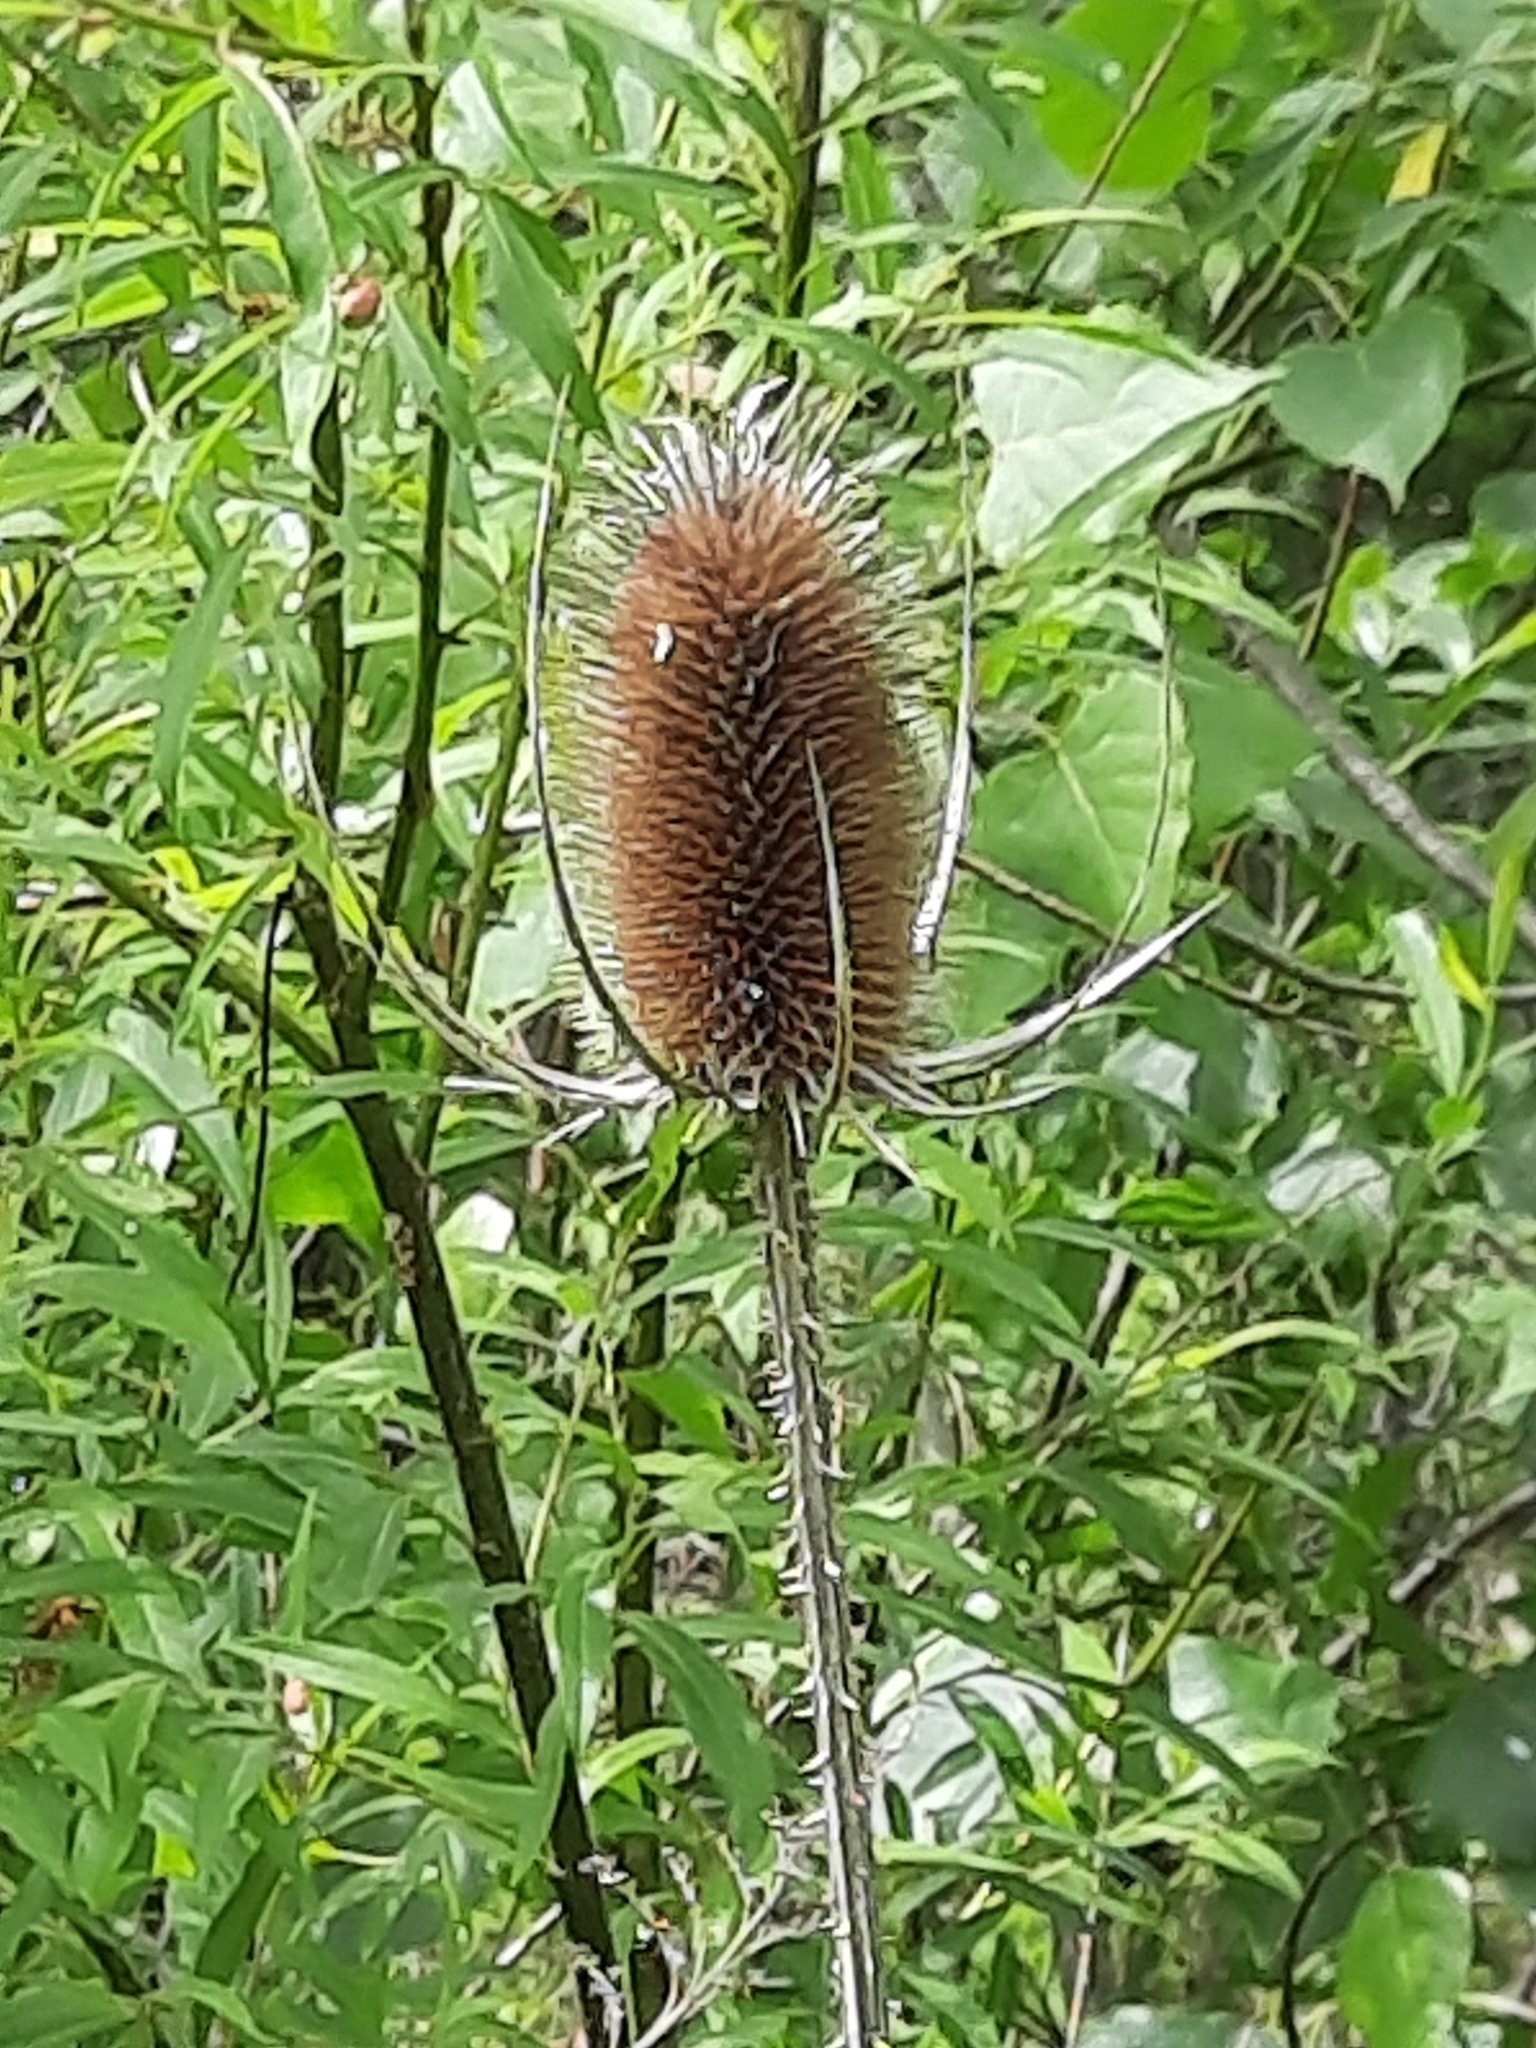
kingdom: Plantae
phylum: Tracheophyta
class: Magnoliopsida
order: Dipsacales
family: Caprifoliaceae
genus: Dipsacus
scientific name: Dipsacus fullonum
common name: Teasel
